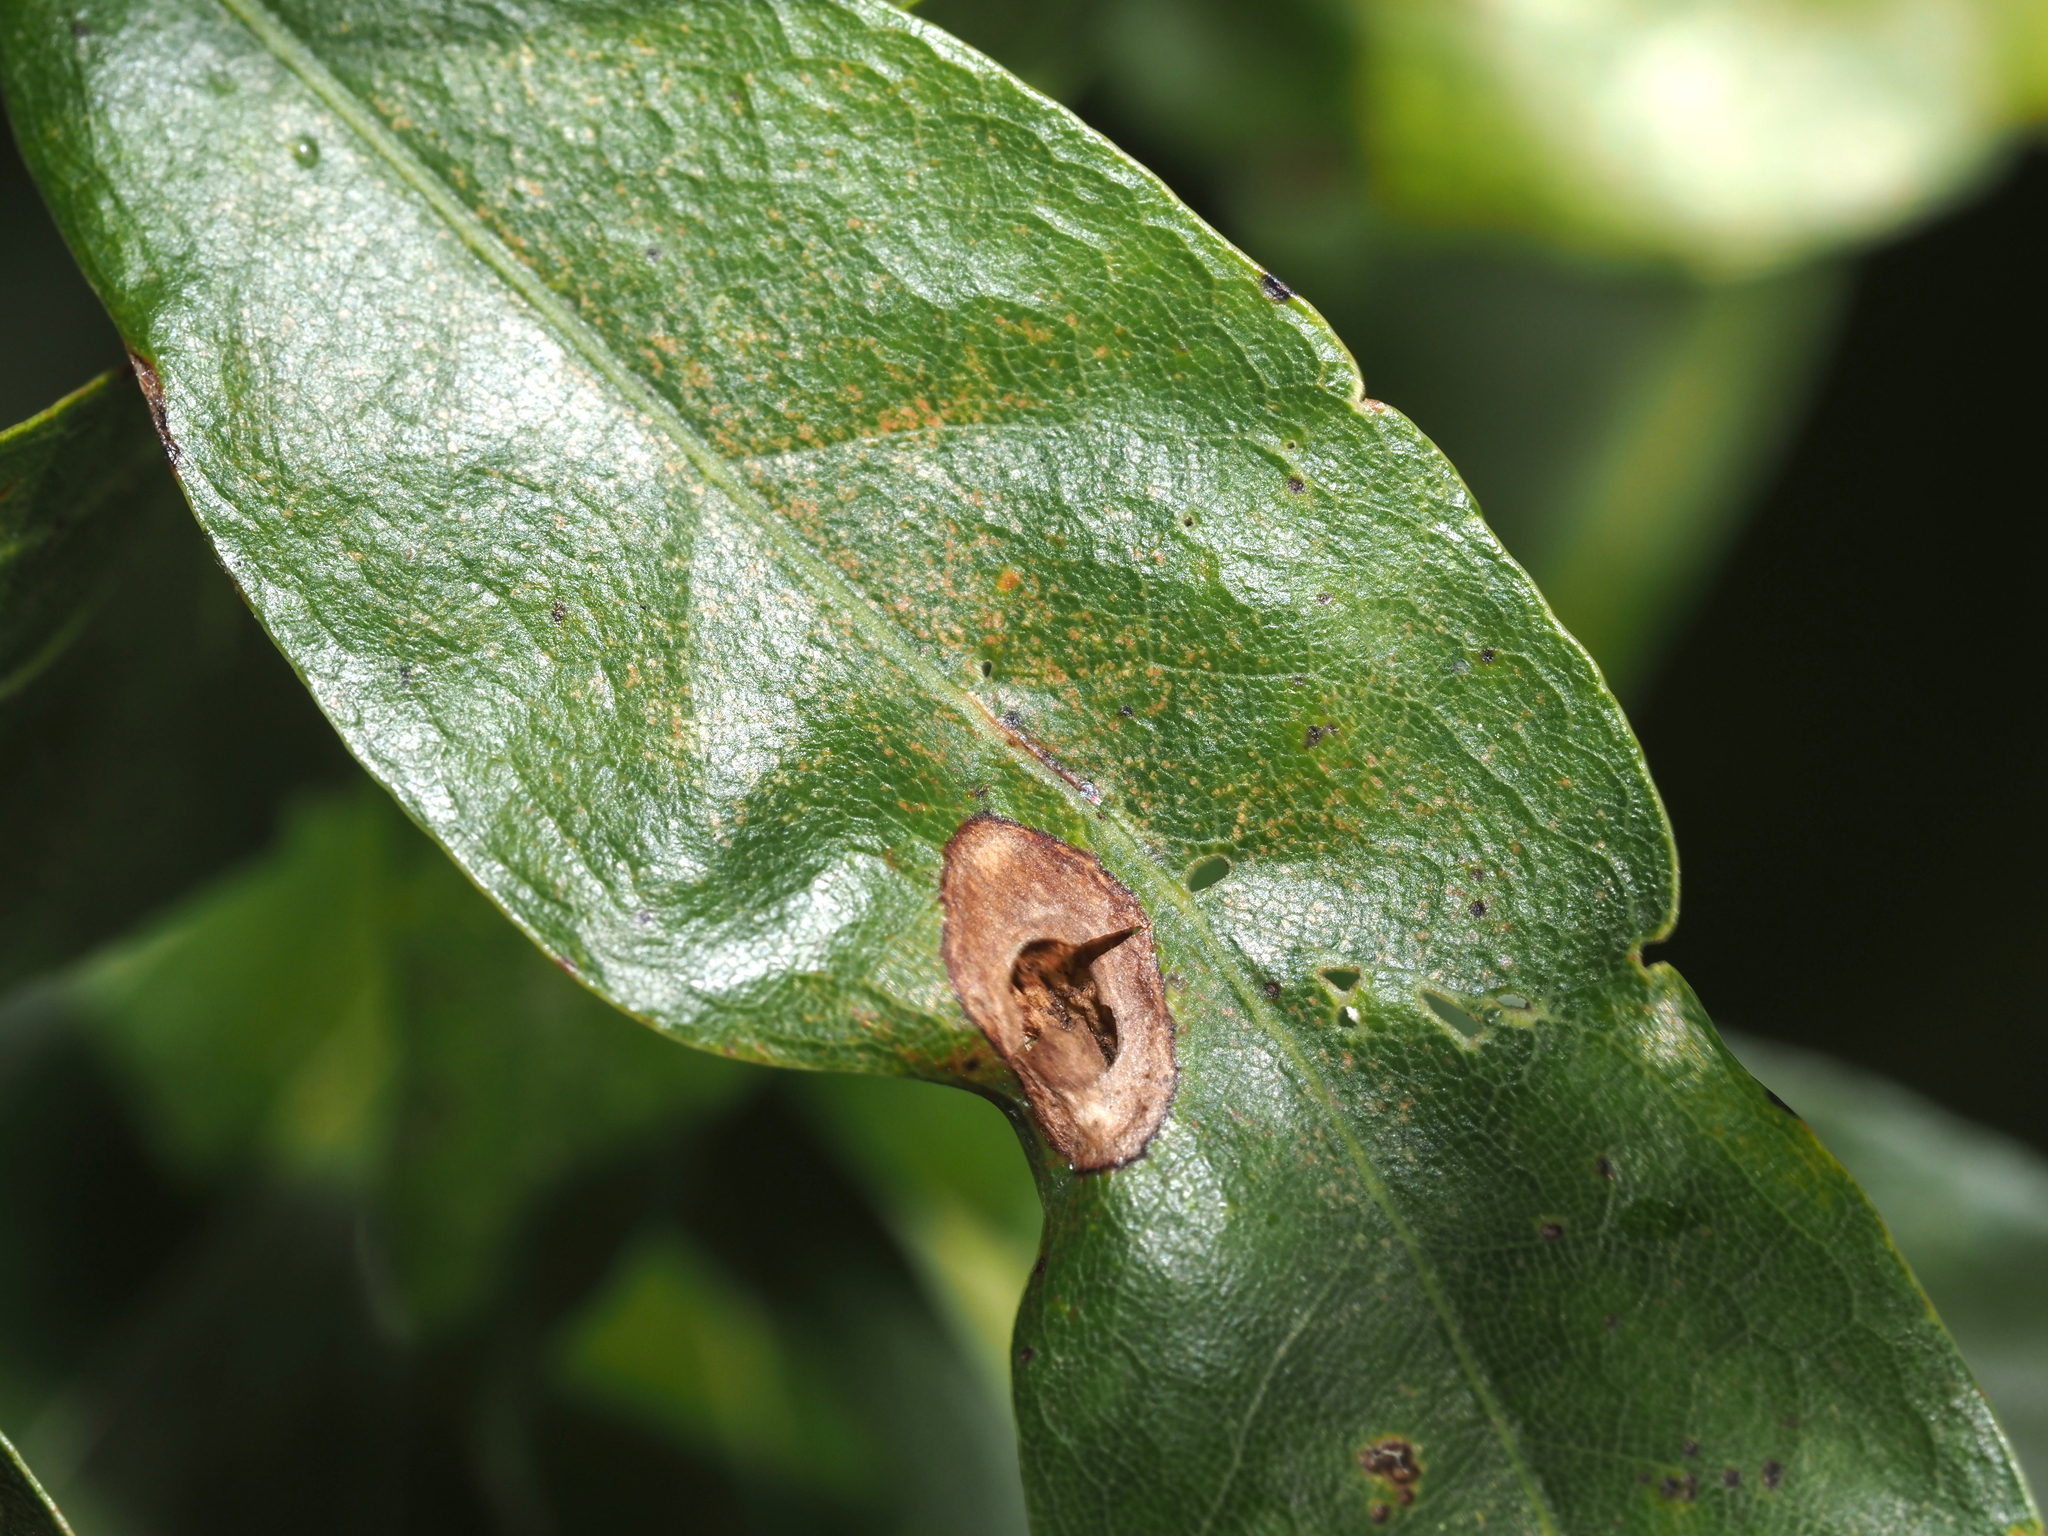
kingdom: Animalia
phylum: Arthropoda
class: Insecta
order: Hymenoptera
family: Cynipidae
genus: Dryocosmus
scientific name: Dryocosmus
